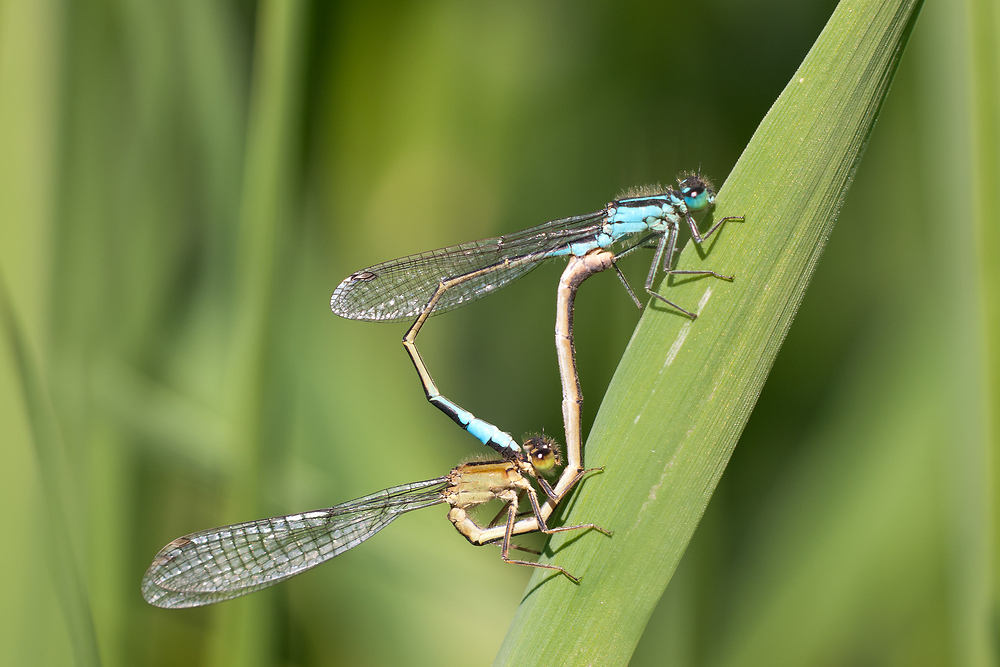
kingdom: Animalia
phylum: Arthropoda
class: Insecta
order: Odonata
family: Coenagrionidae
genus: Ischnura
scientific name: Ischnura elegans
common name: Blue-tailed damselfly
